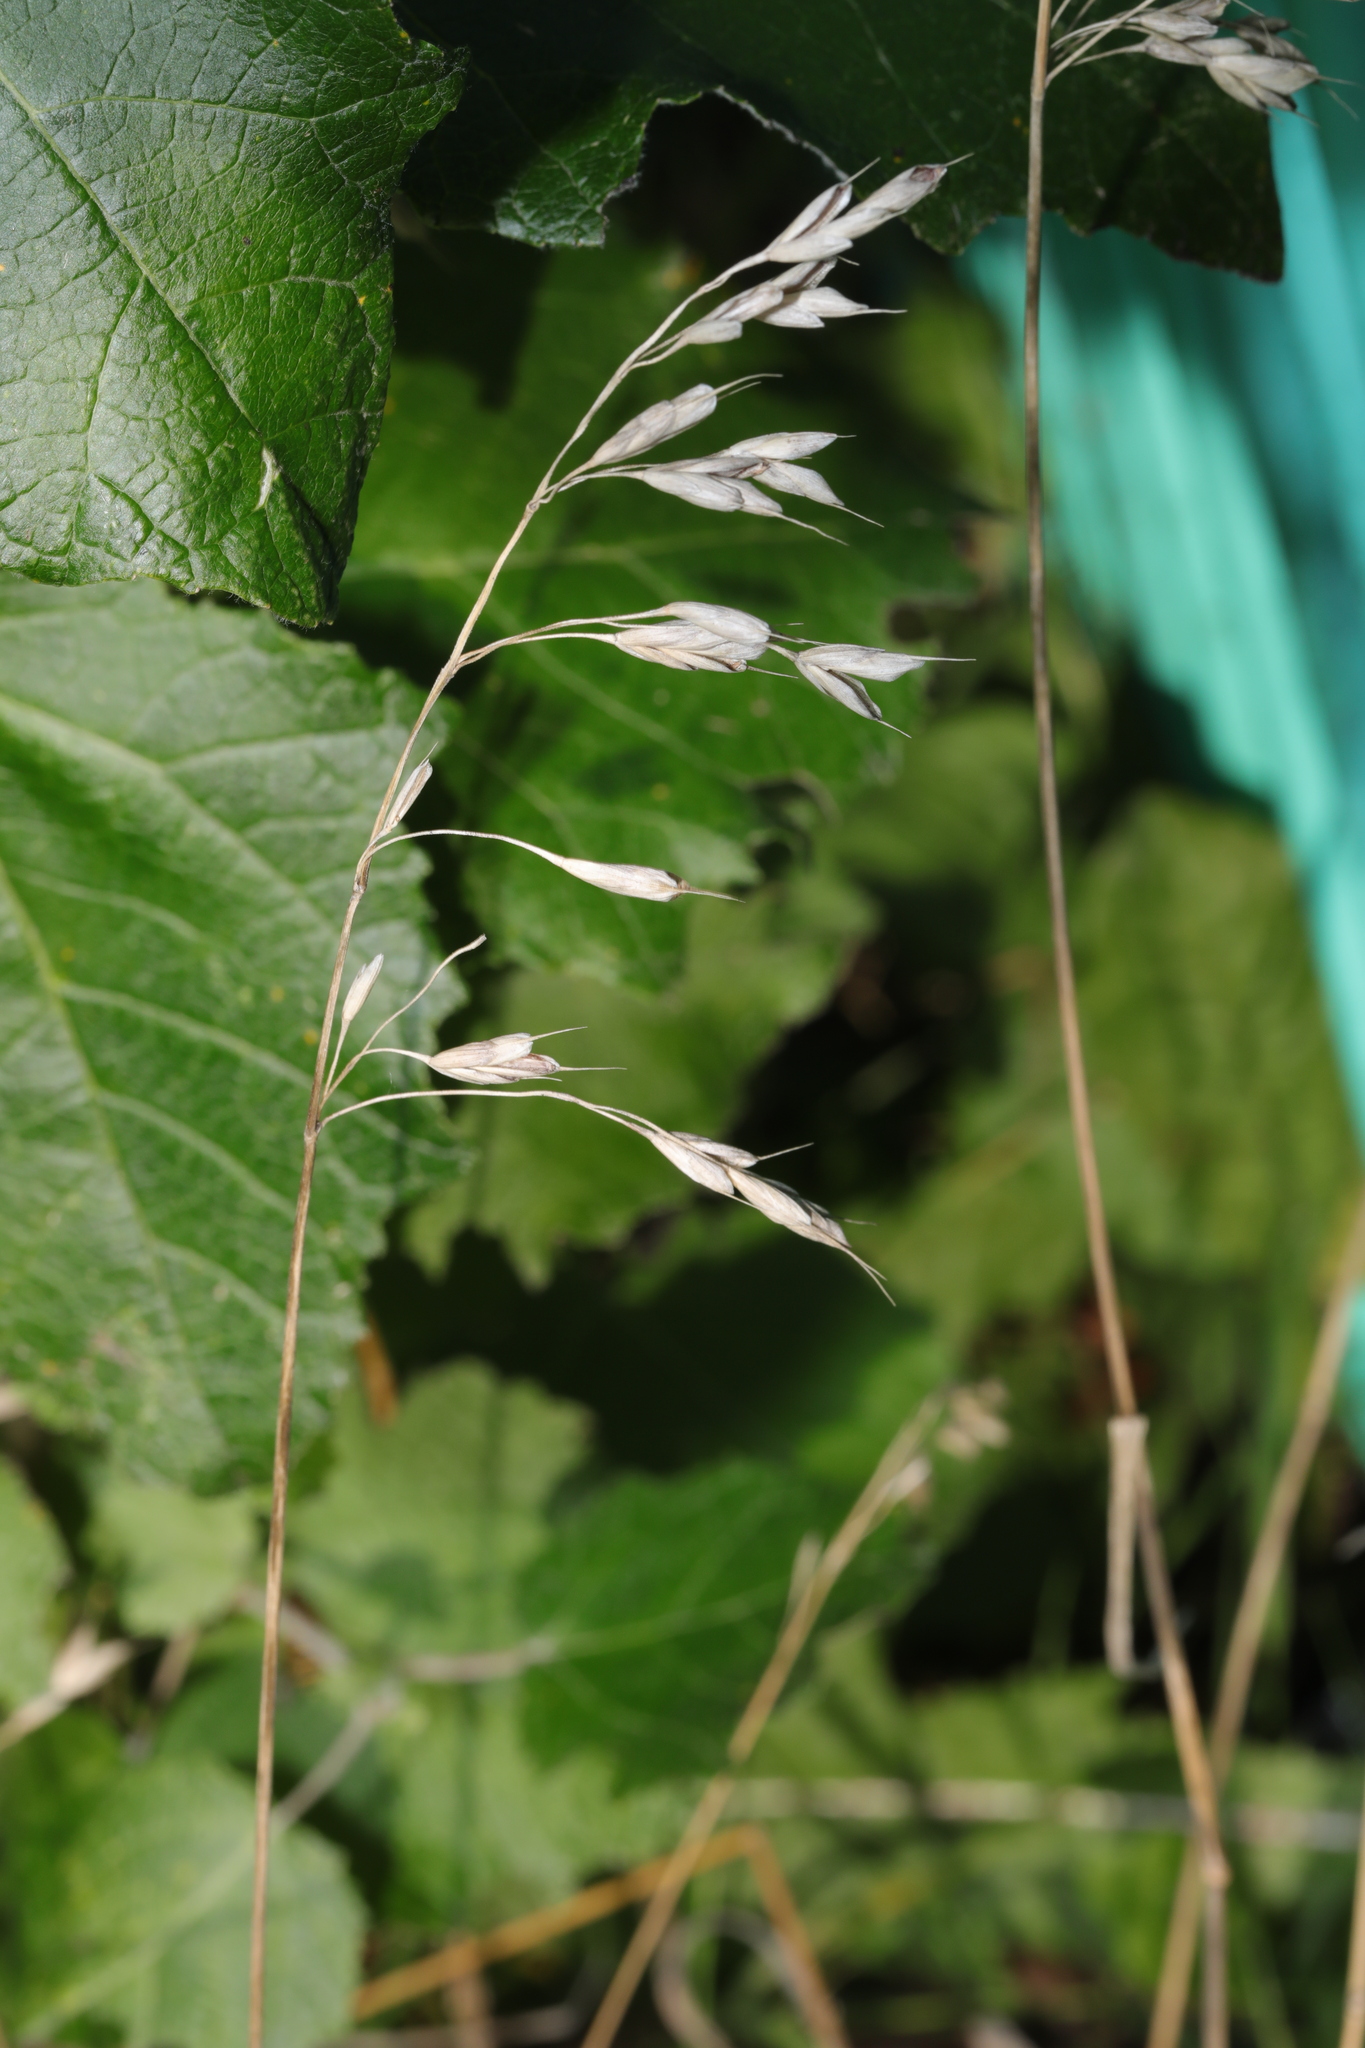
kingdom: Plantae
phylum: Tracheophyta
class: Liliopsida
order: Poales
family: Poaceae
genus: Arrhenatherum
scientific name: Arrhenatherum elatius
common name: Tall oatgrass
